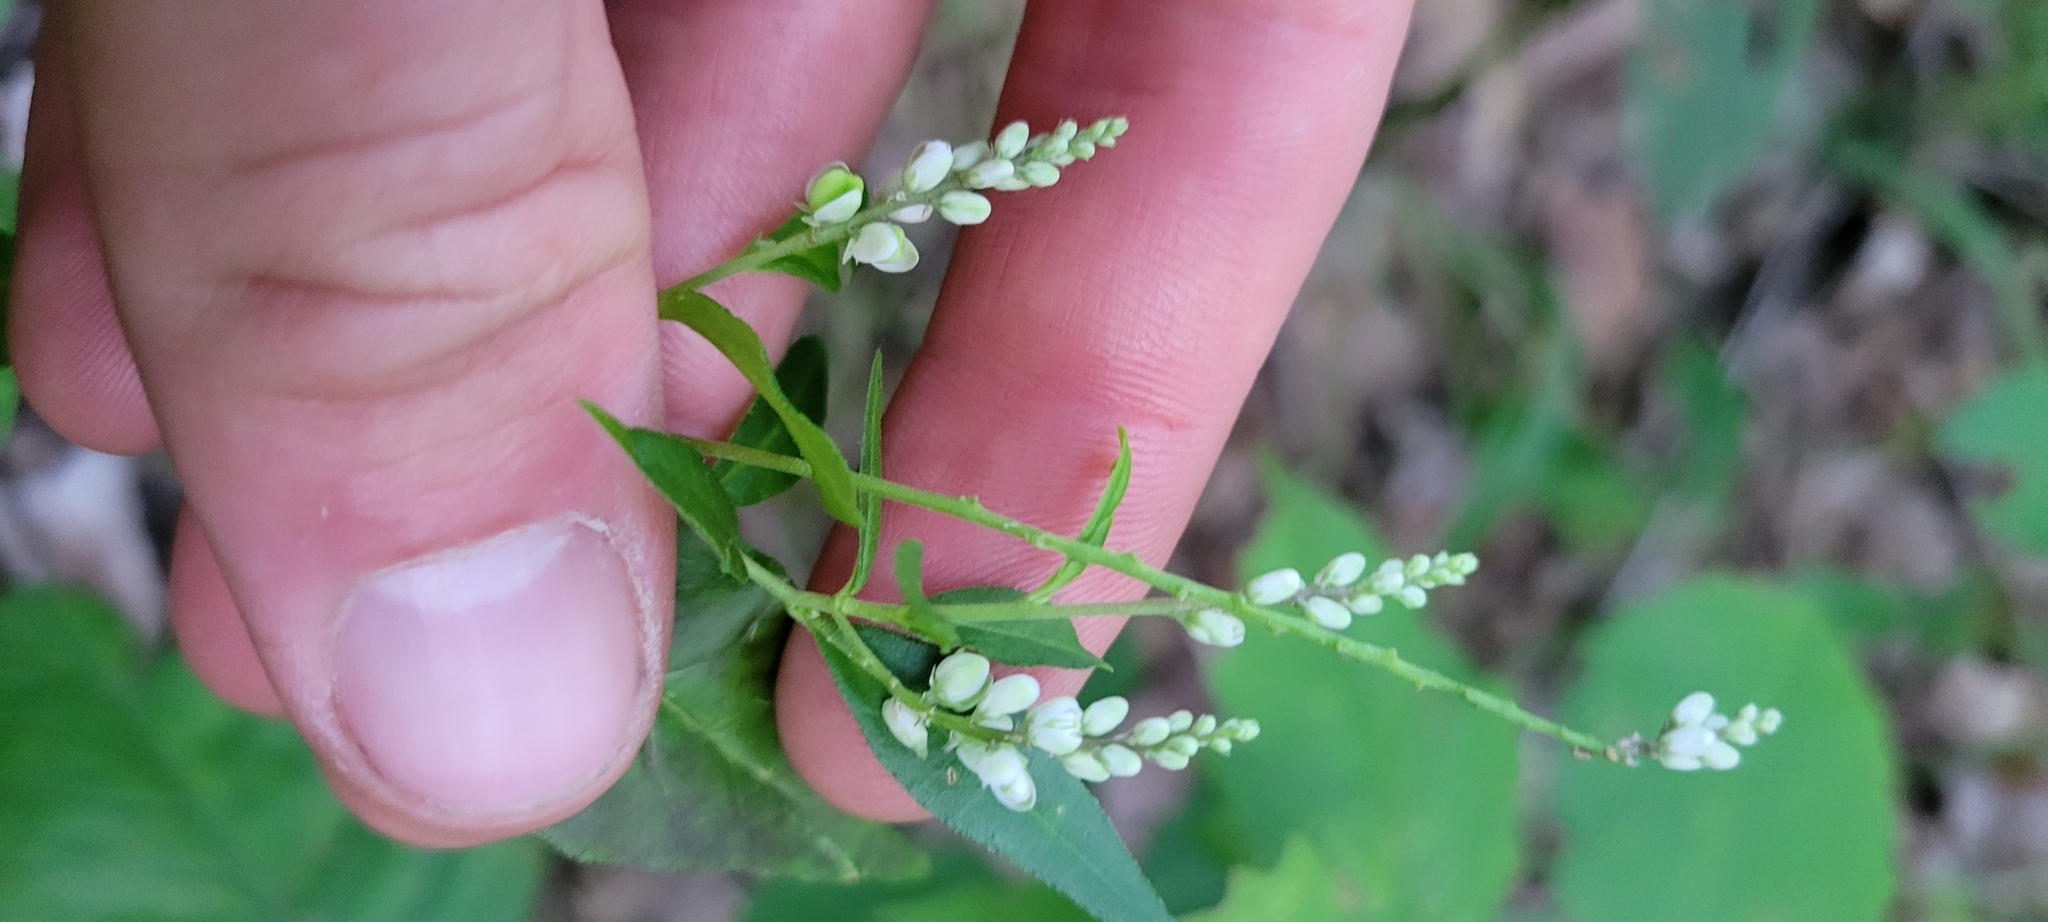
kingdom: Plantae
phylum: Tracheophyta
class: Magnoliopsida
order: Fabales
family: Polygalaceae
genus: Polygala
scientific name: Polygala senega
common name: Seneca snakeroot
